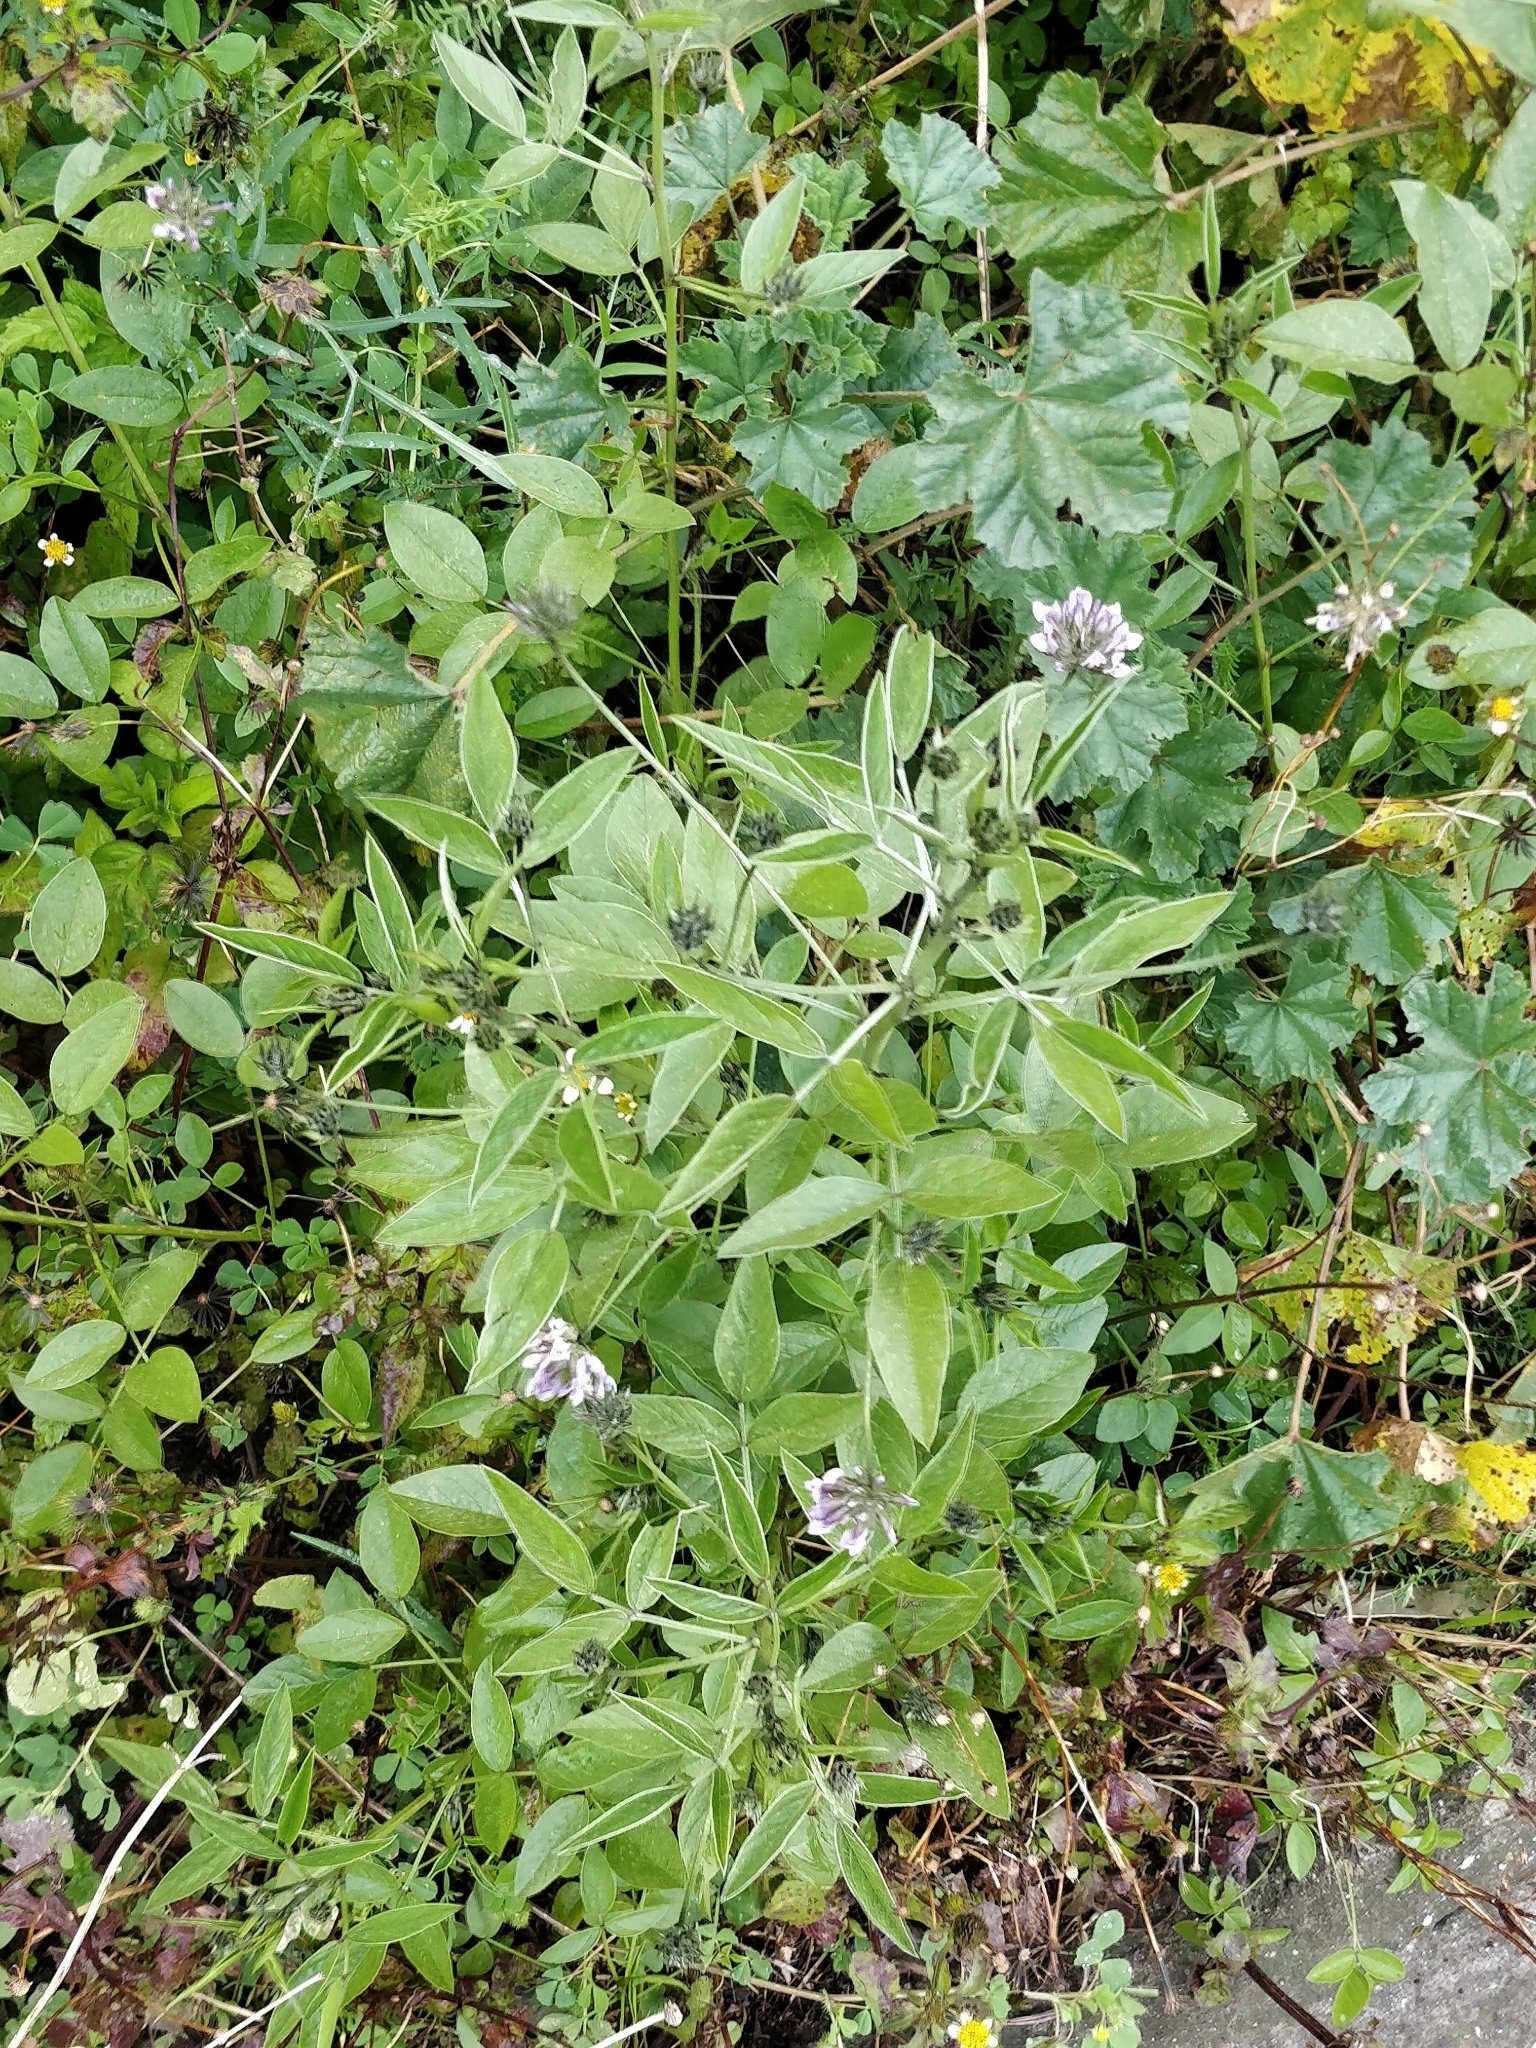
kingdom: Plantae
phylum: Tracheophyta
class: Magnoliopsida
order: Fabales
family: Fabaceae
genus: Bituminaria
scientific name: Bituminaria bituminosa
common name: Arabian pea
